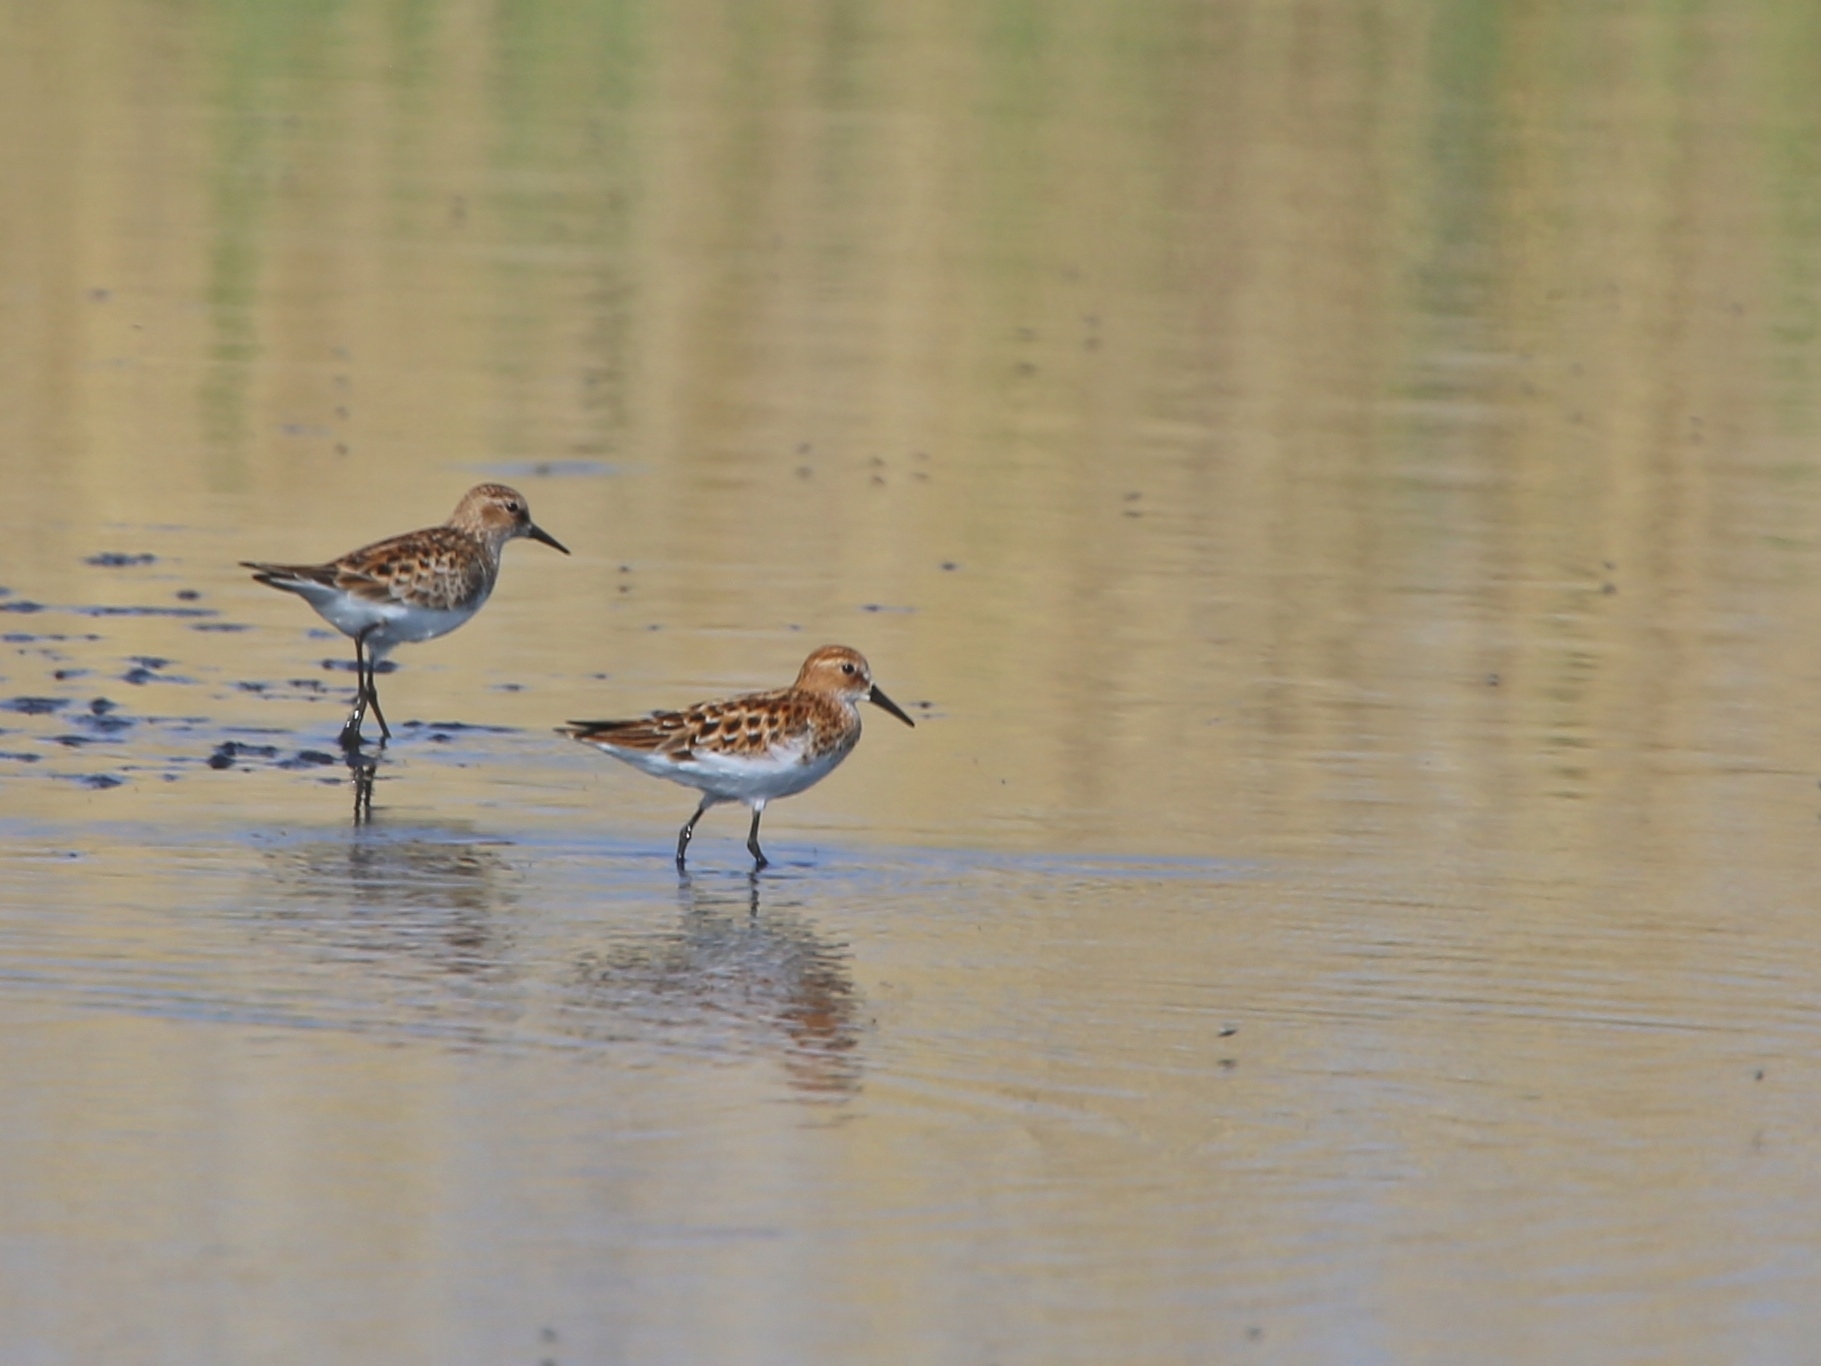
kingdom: Animalia
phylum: Chordata
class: Aves
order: Charadriiformes
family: Scolopacidae
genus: Calidris
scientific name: Calidris minuta
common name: Little stint
